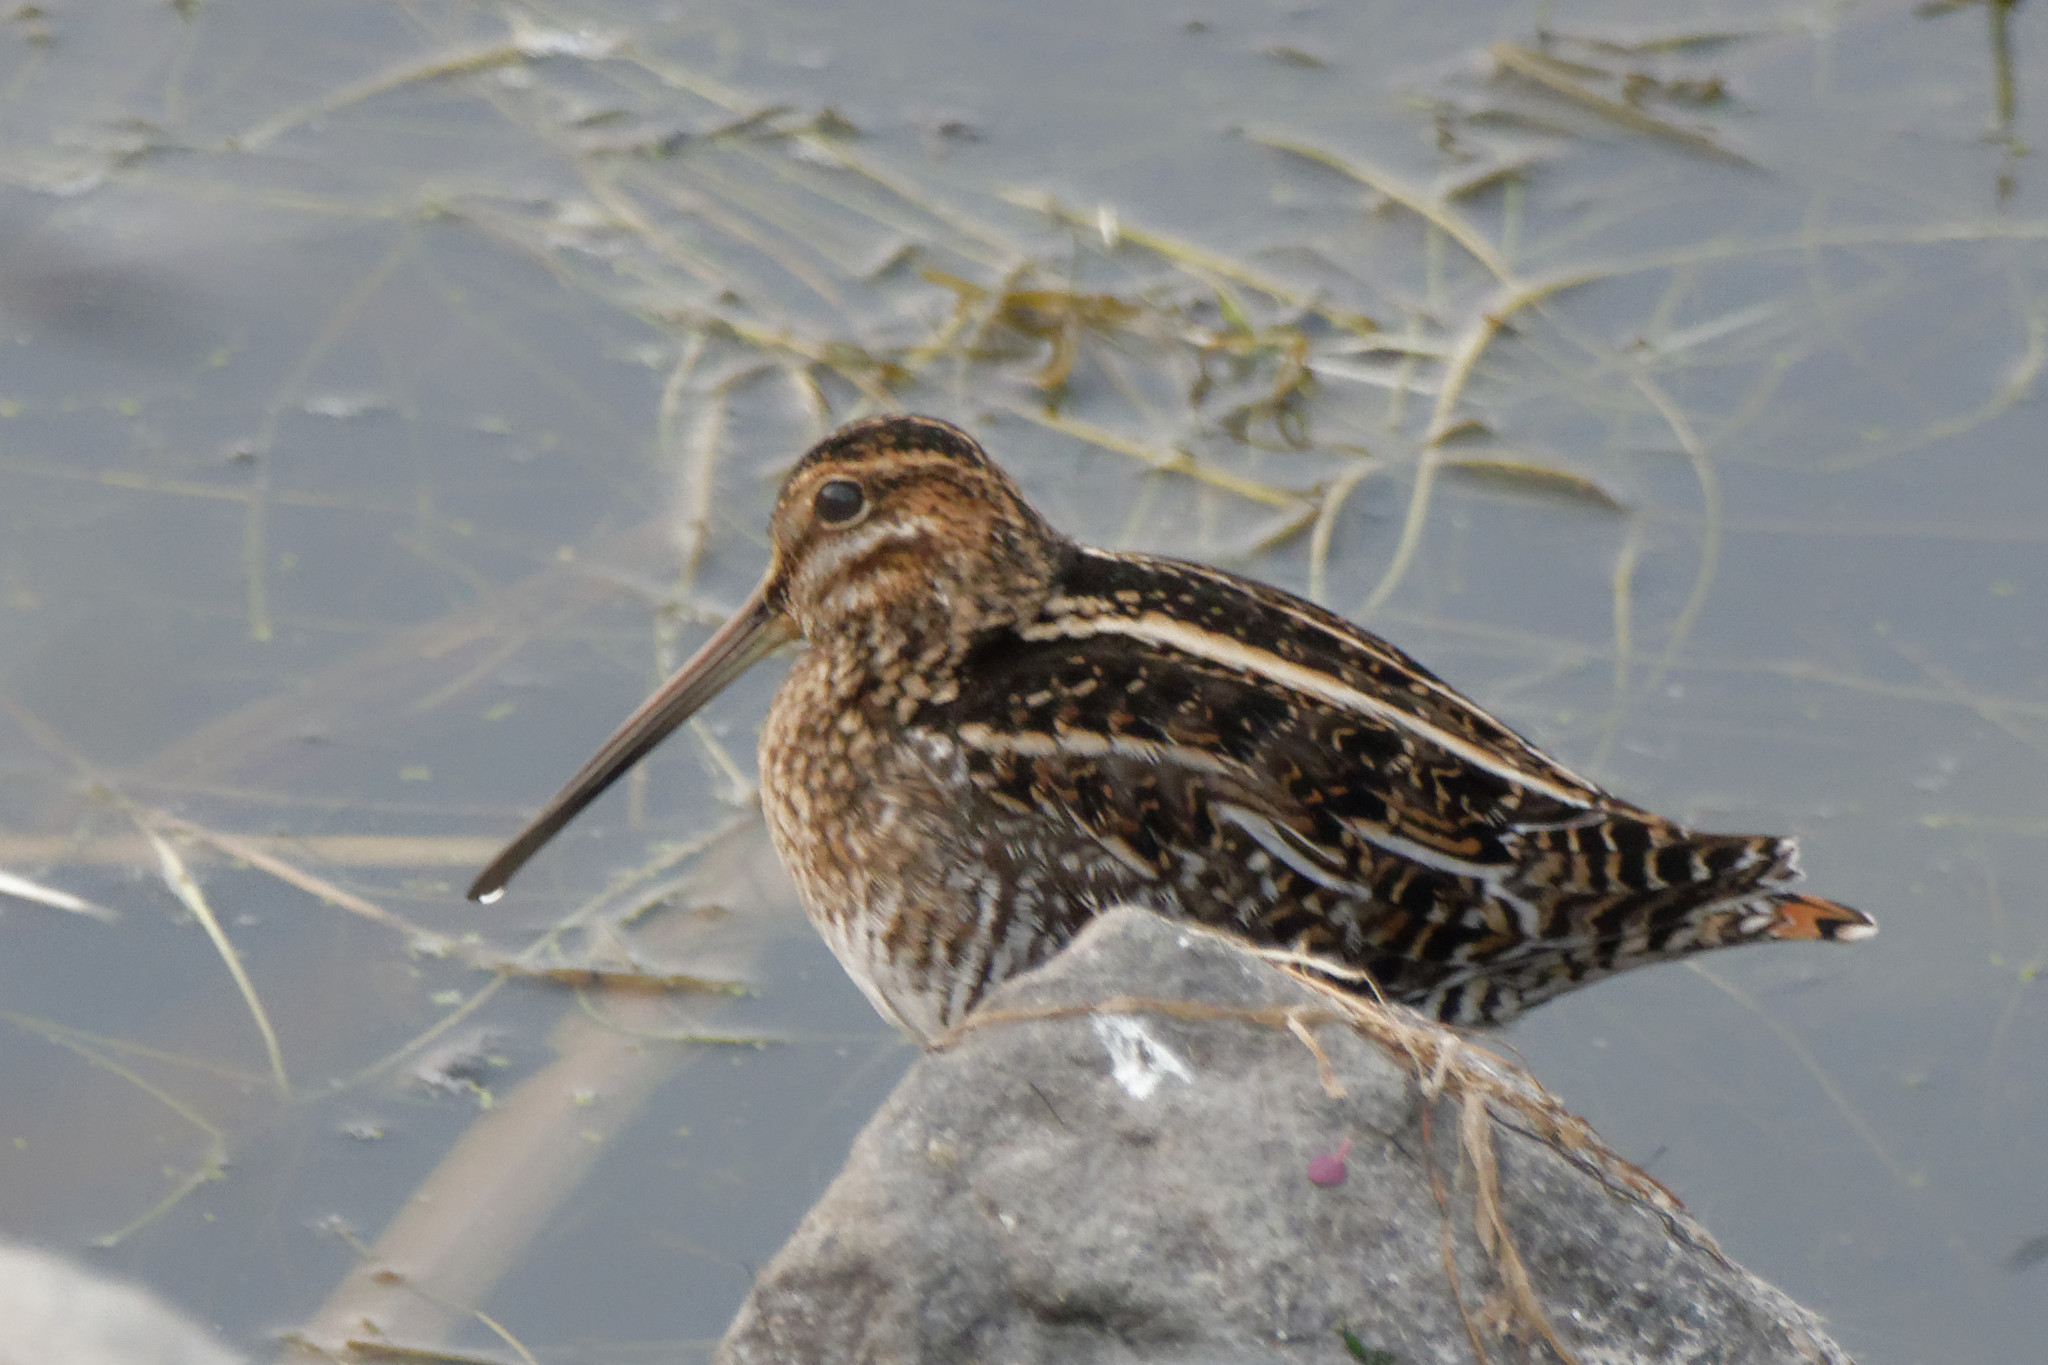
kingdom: Animalia
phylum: Chordata
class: Aves
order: Charadriiformes
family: Scolopacidae
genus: Gallinago
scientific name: Gallinago delicata
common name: Wilson's snipe
